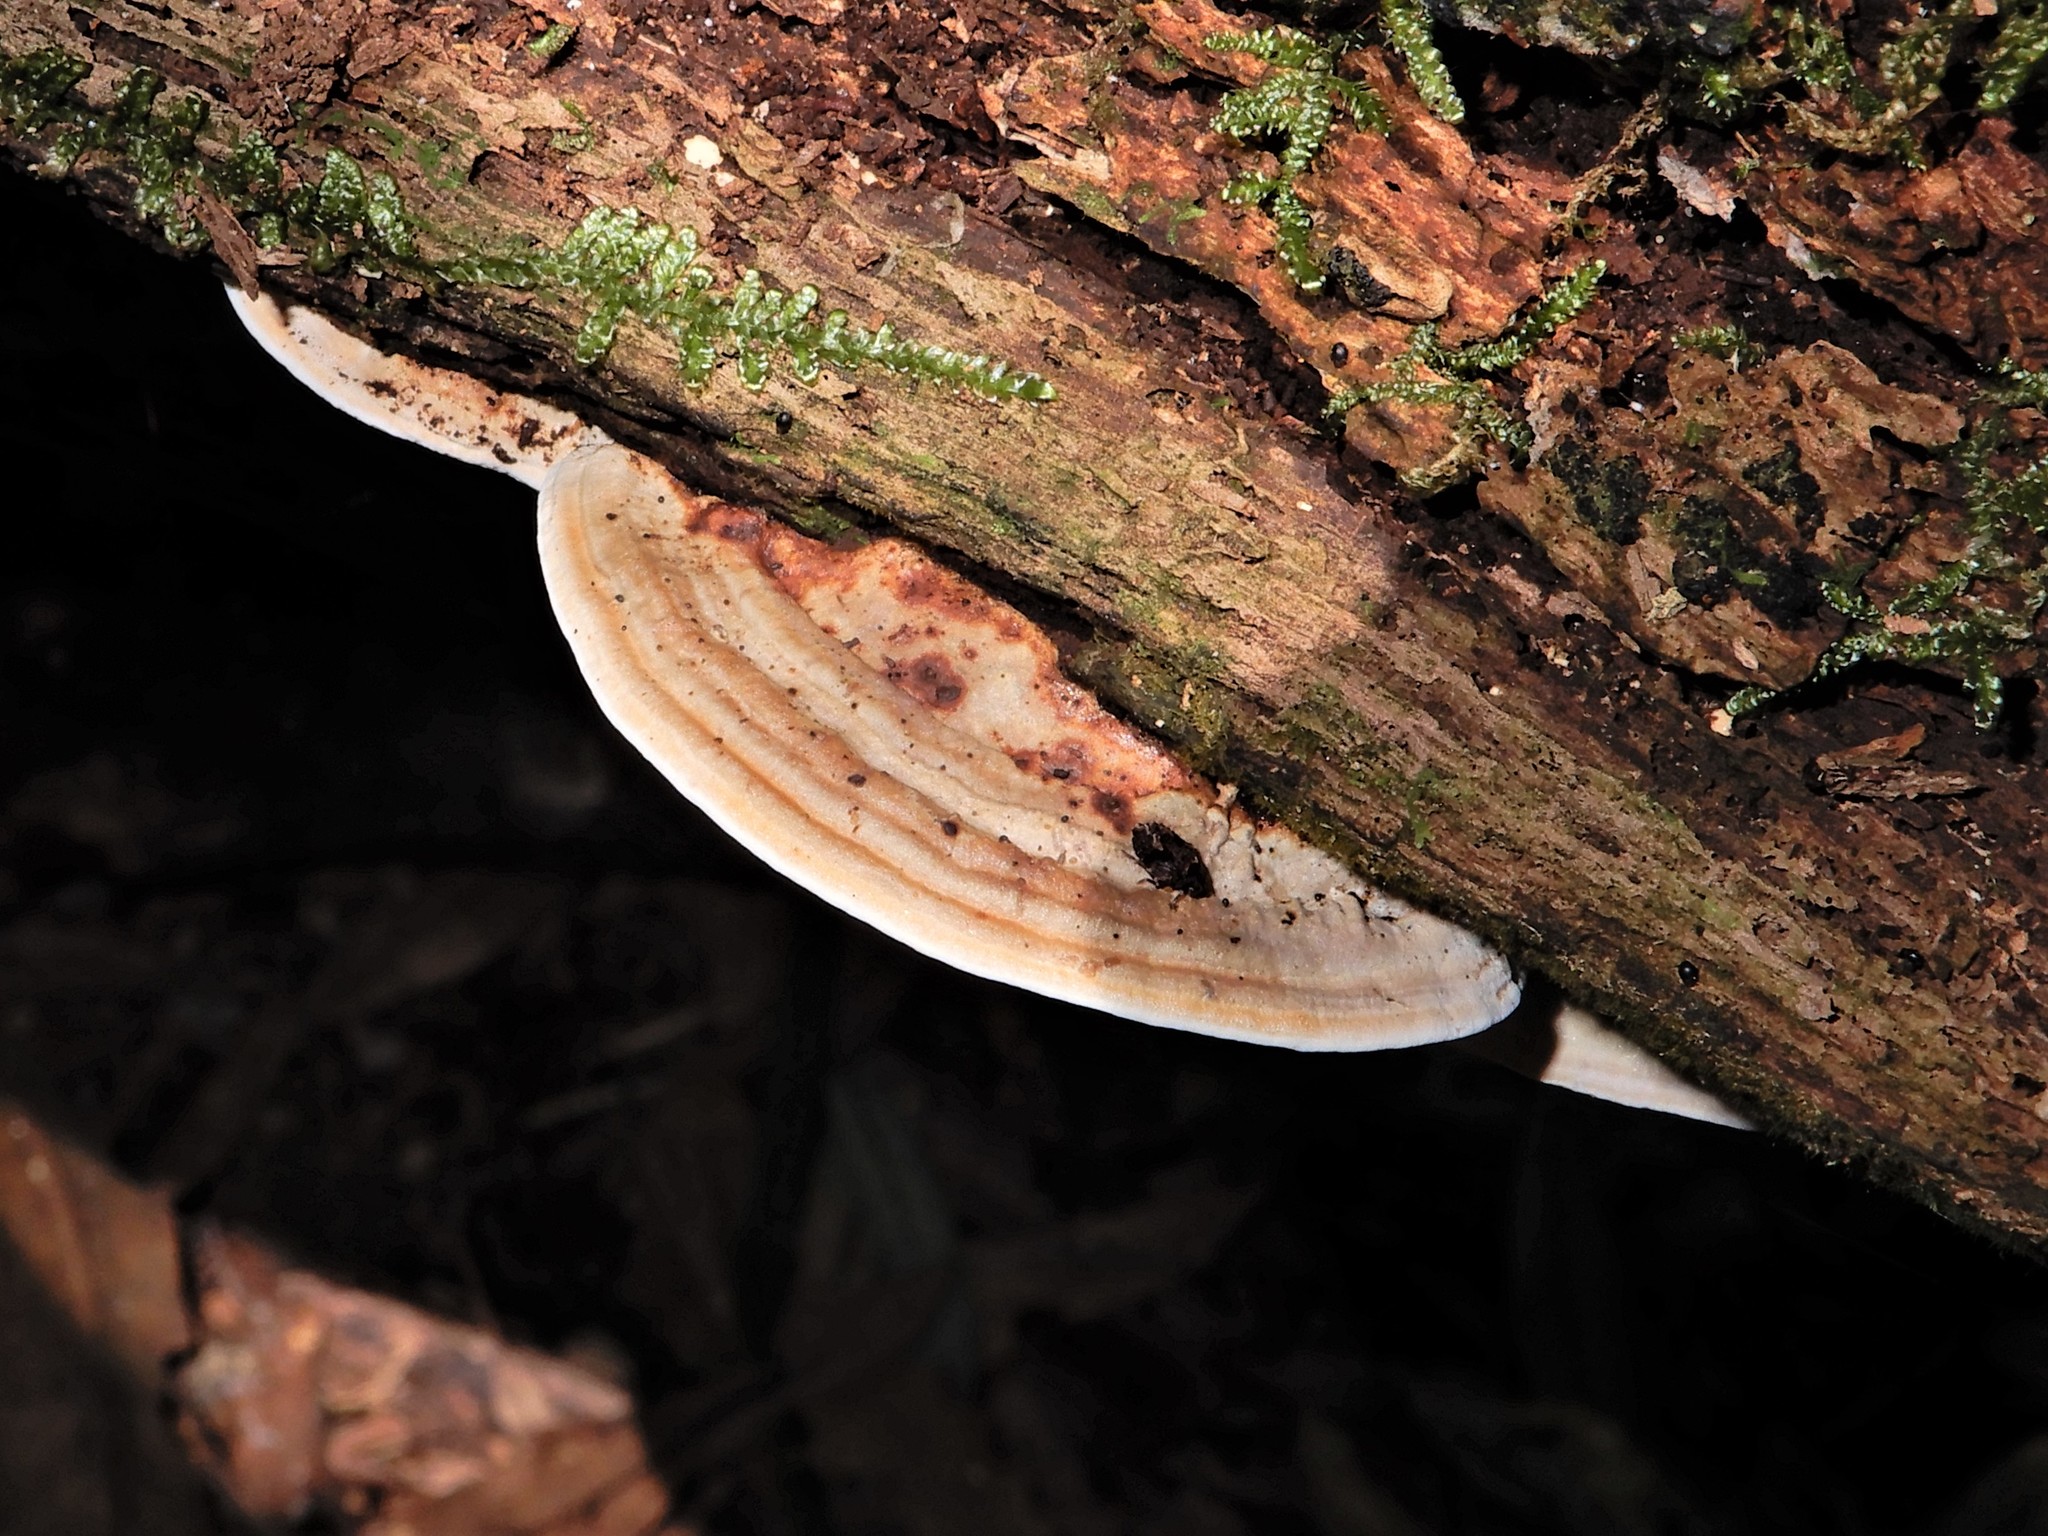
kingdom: Fungi
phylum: Basidiomycota
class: Agaricomycetes
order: Polyporales
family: Polyporaceae
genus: Truncospora
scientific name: Truncospora ochroleuca
